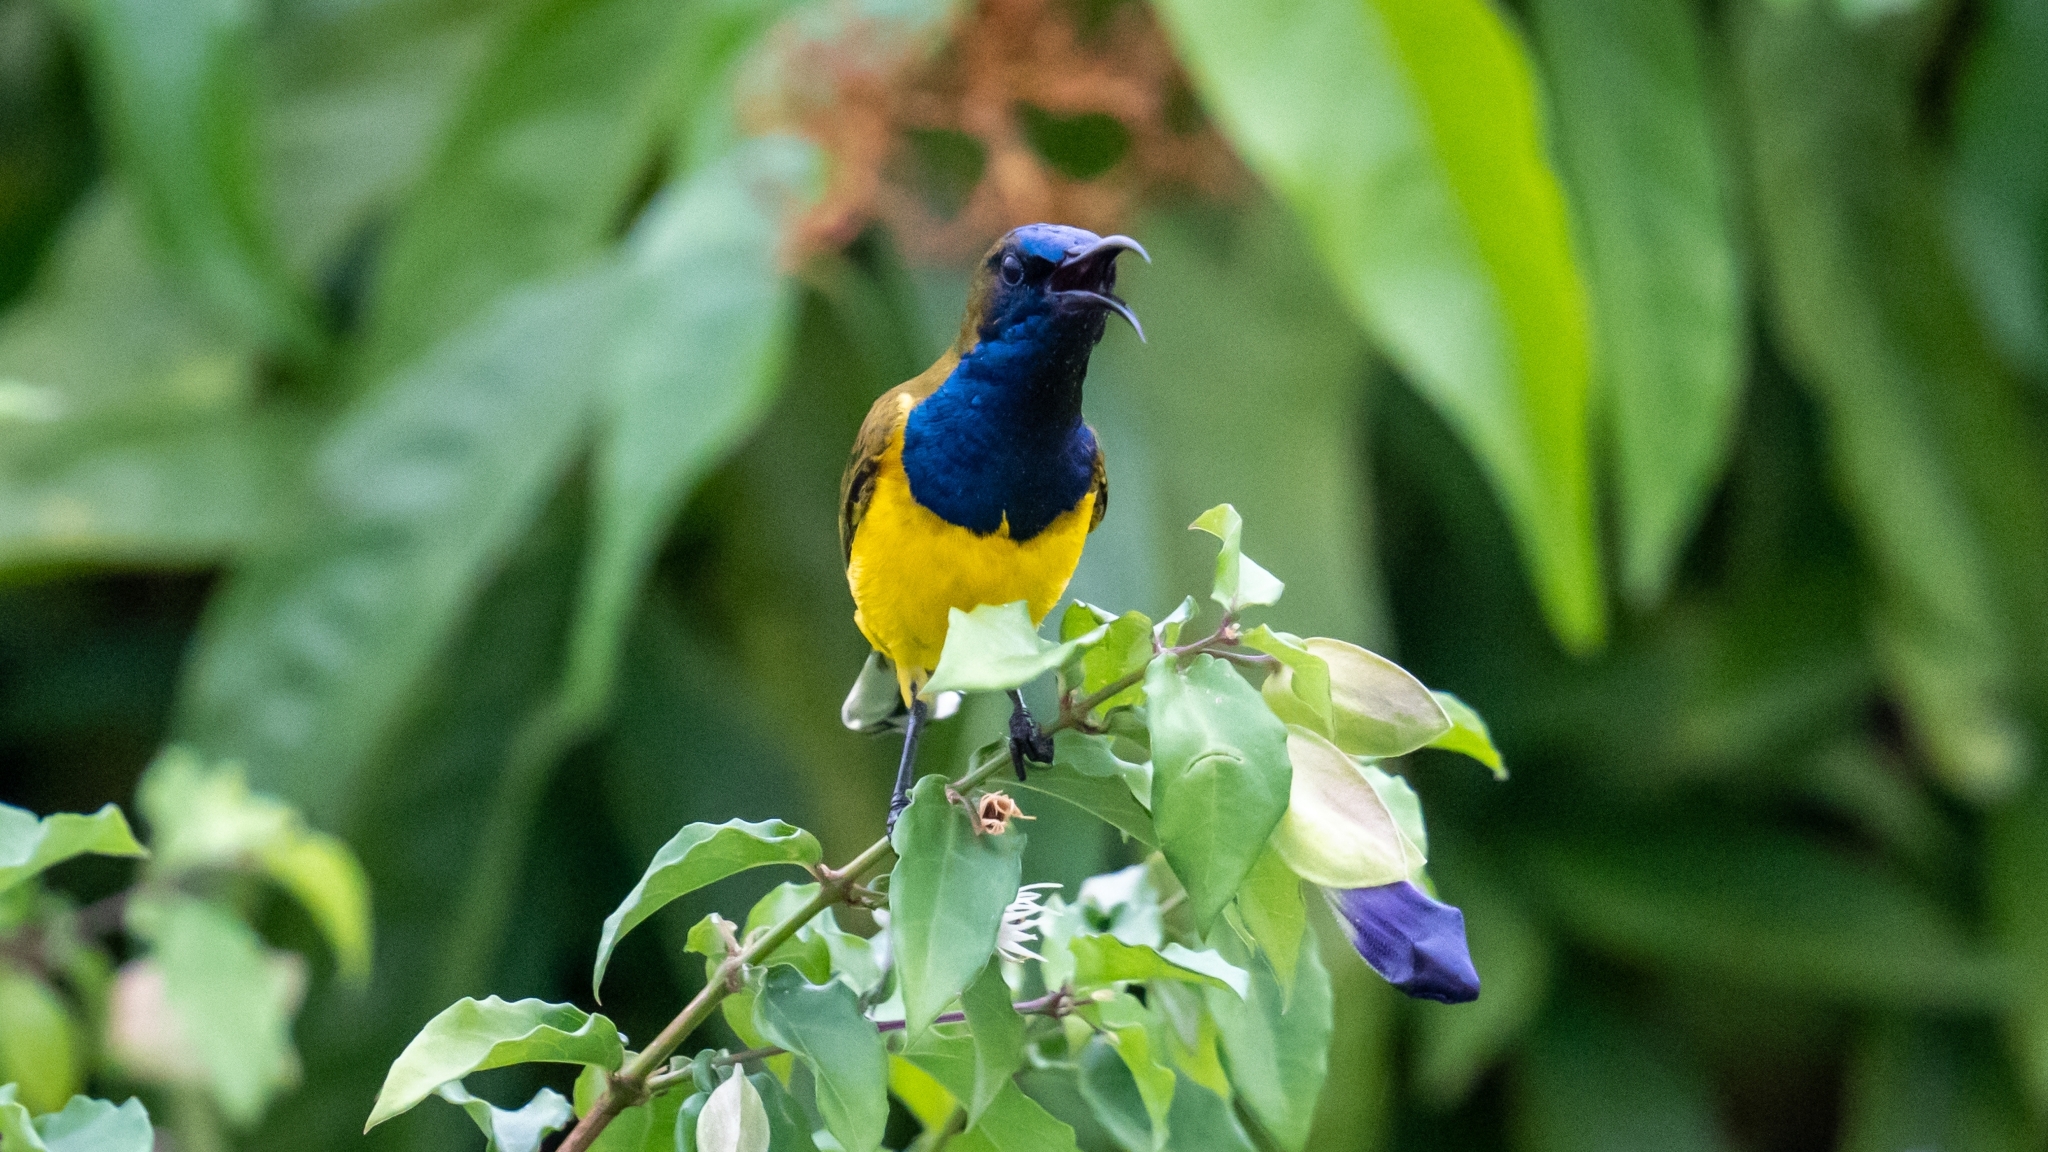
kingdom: Animalia
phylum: Chordata
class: Aves
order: Passeriformes
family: Nectariniidae
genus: Cinnyris
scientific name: Cinnyris
